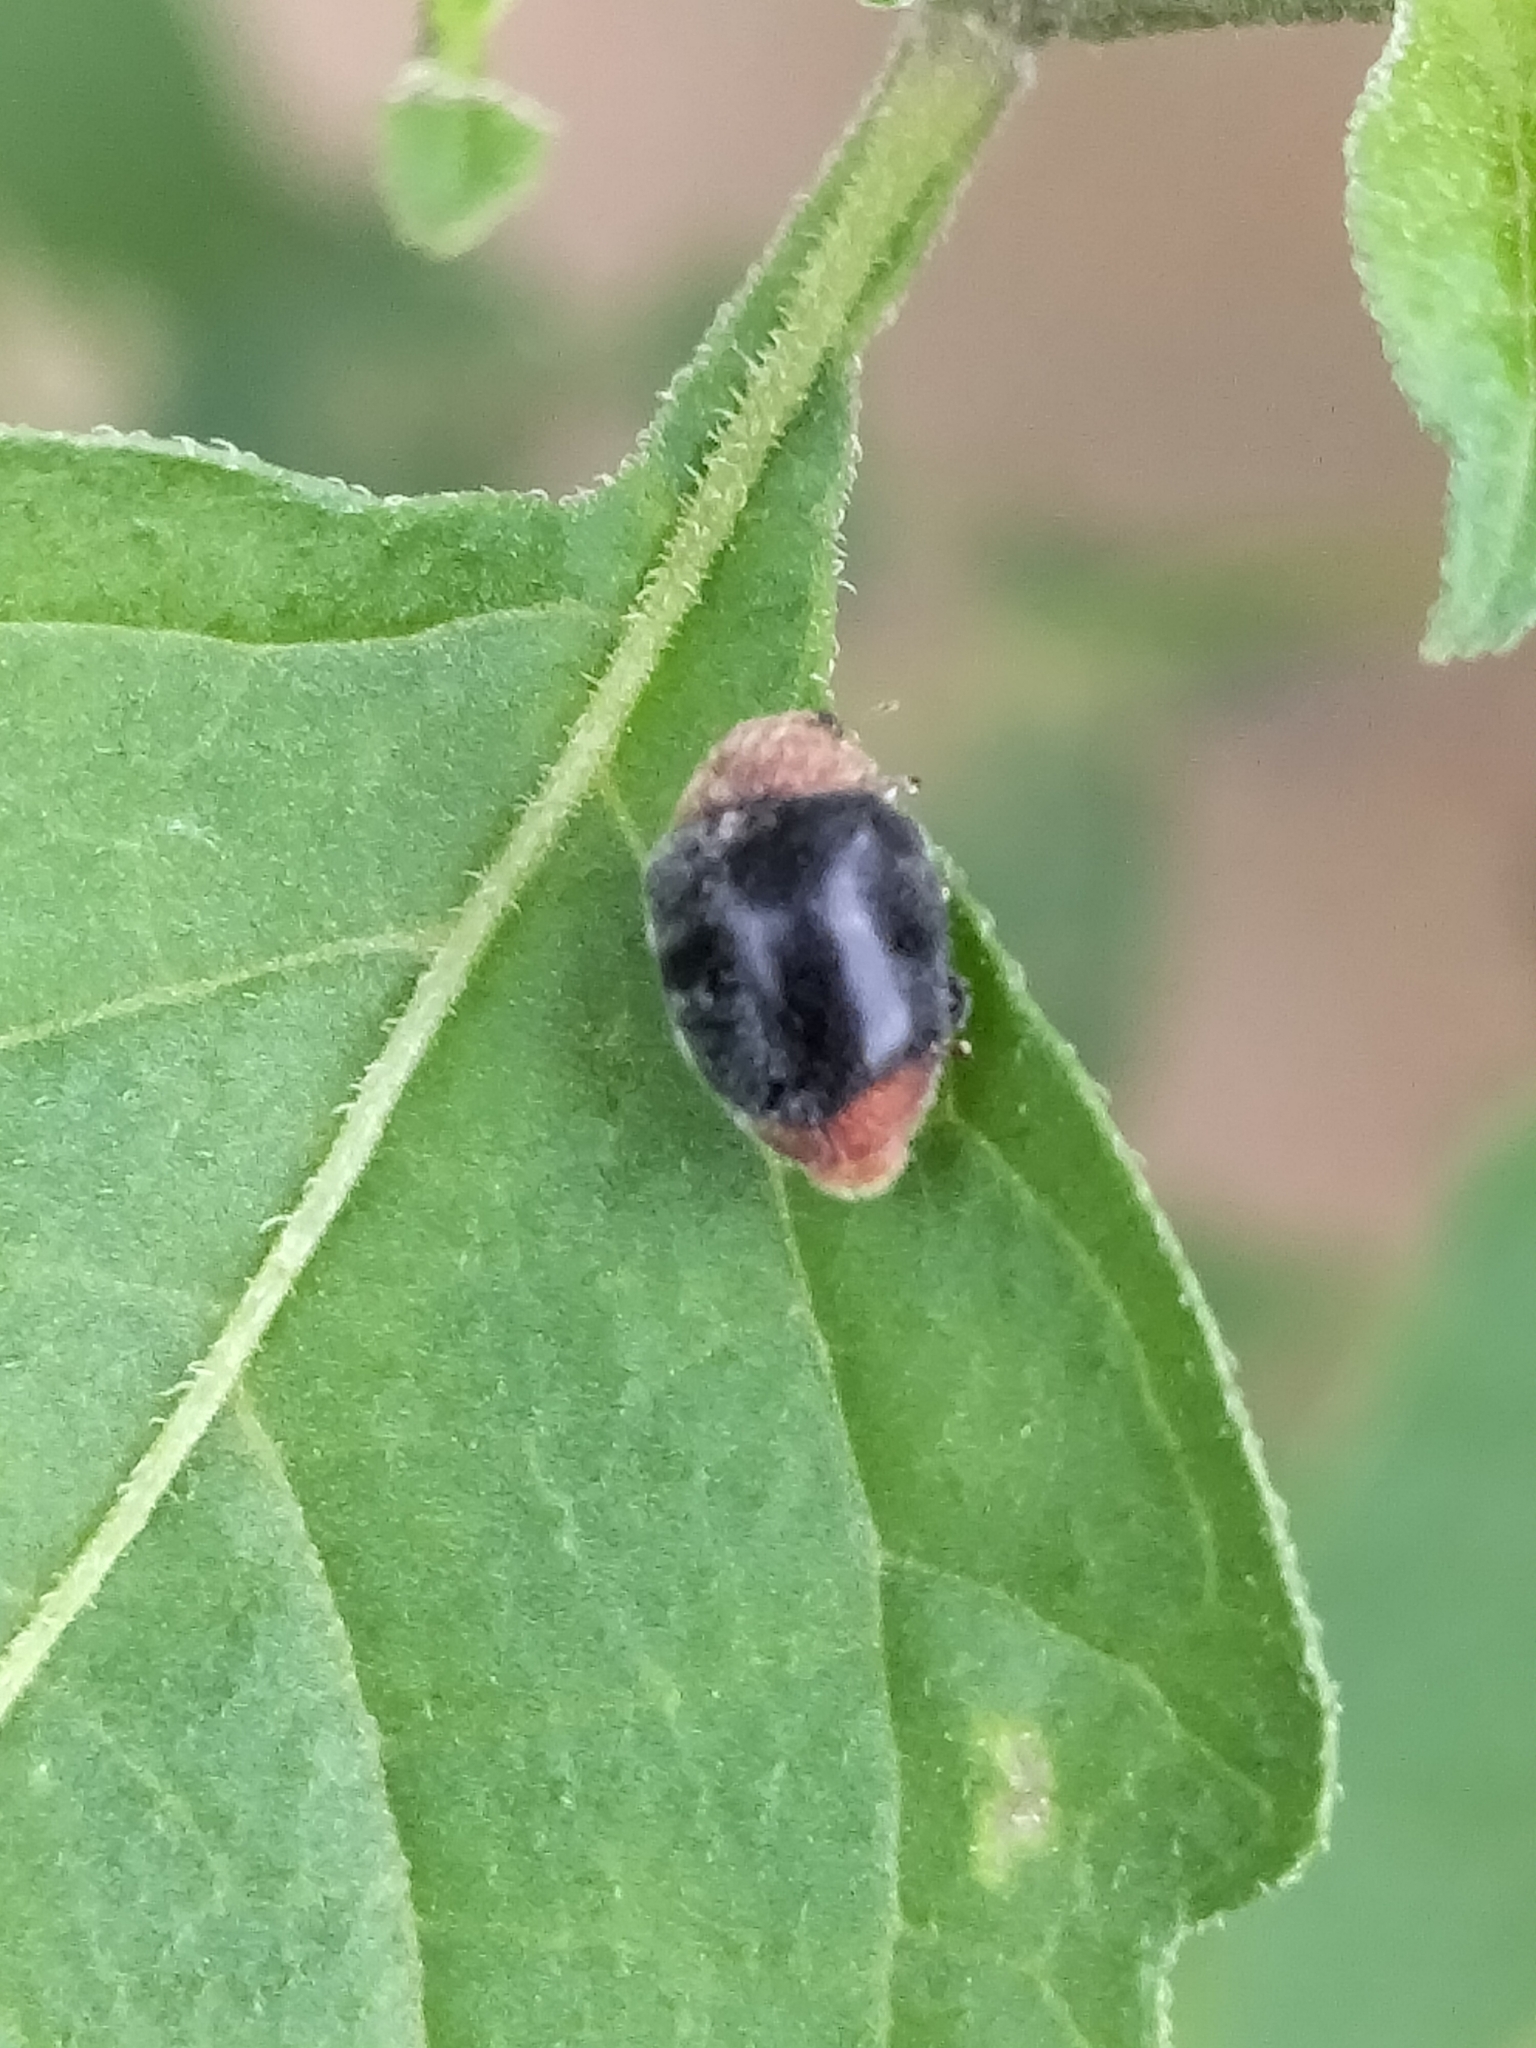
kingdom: Animalia
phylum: Arthropoda
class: Insecta
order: Coleoptera
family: Coccinellidae
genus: Cryptolaemus
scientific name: Cryptolaemus montrouzieri
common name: Mealybug destroyer
